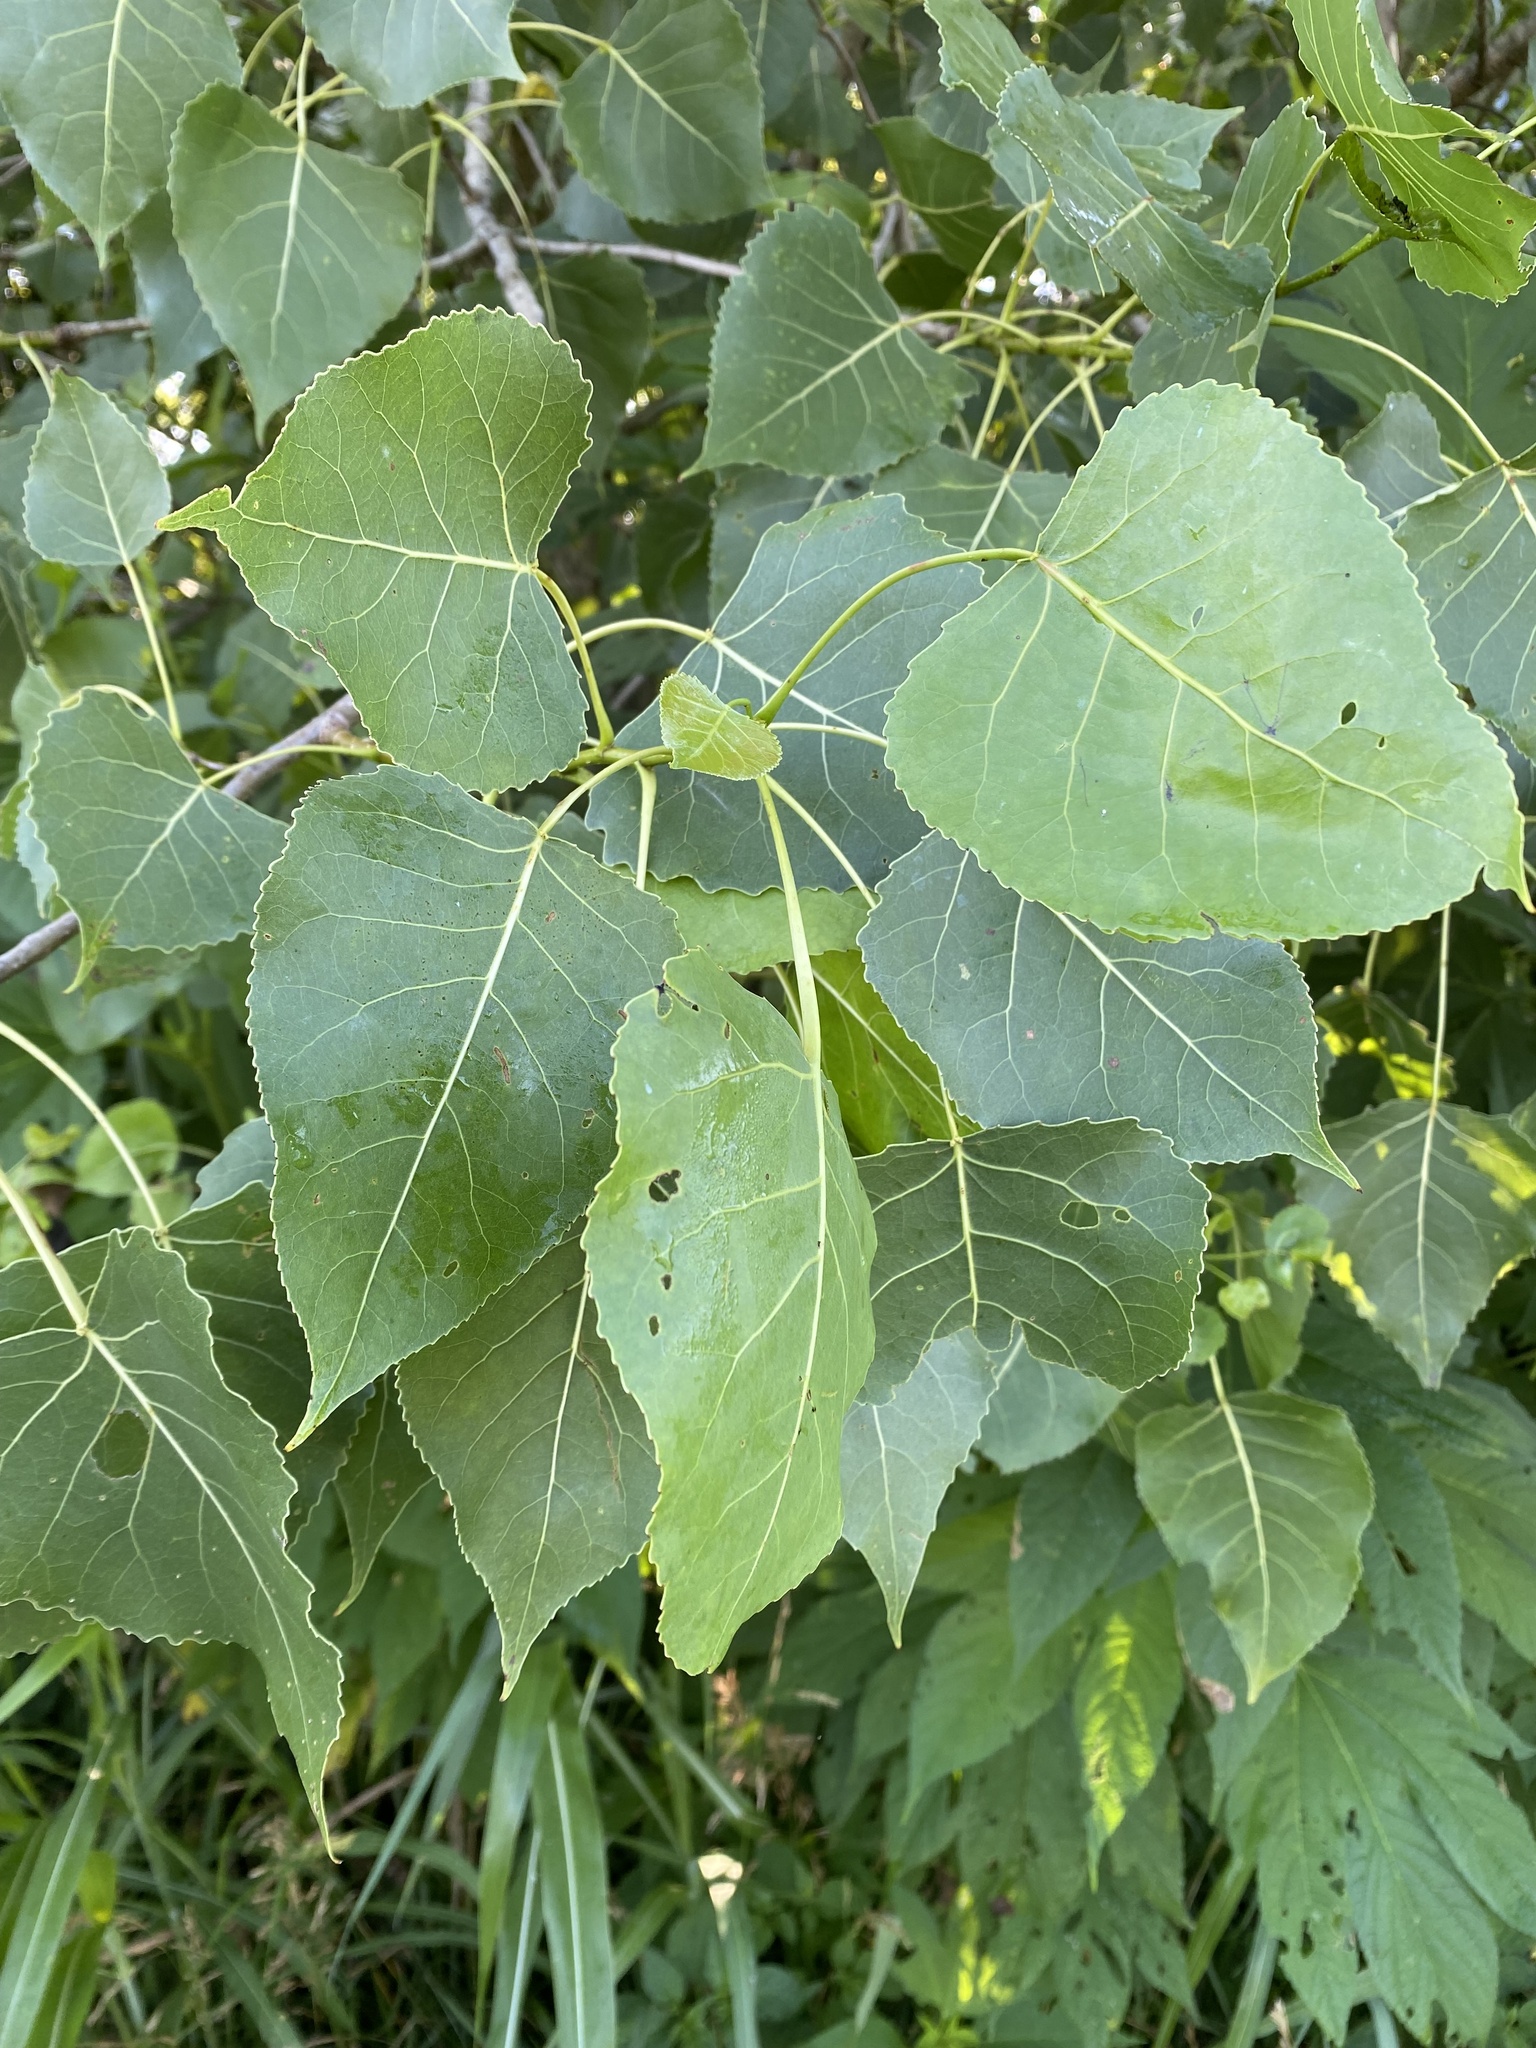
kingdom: Plantae
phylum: Tracheophyta
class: Magnoliopsida
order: Malpighiales
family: Salicaceae
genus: Populus
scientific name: Populus deltoides
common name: Eastern cottonwood
